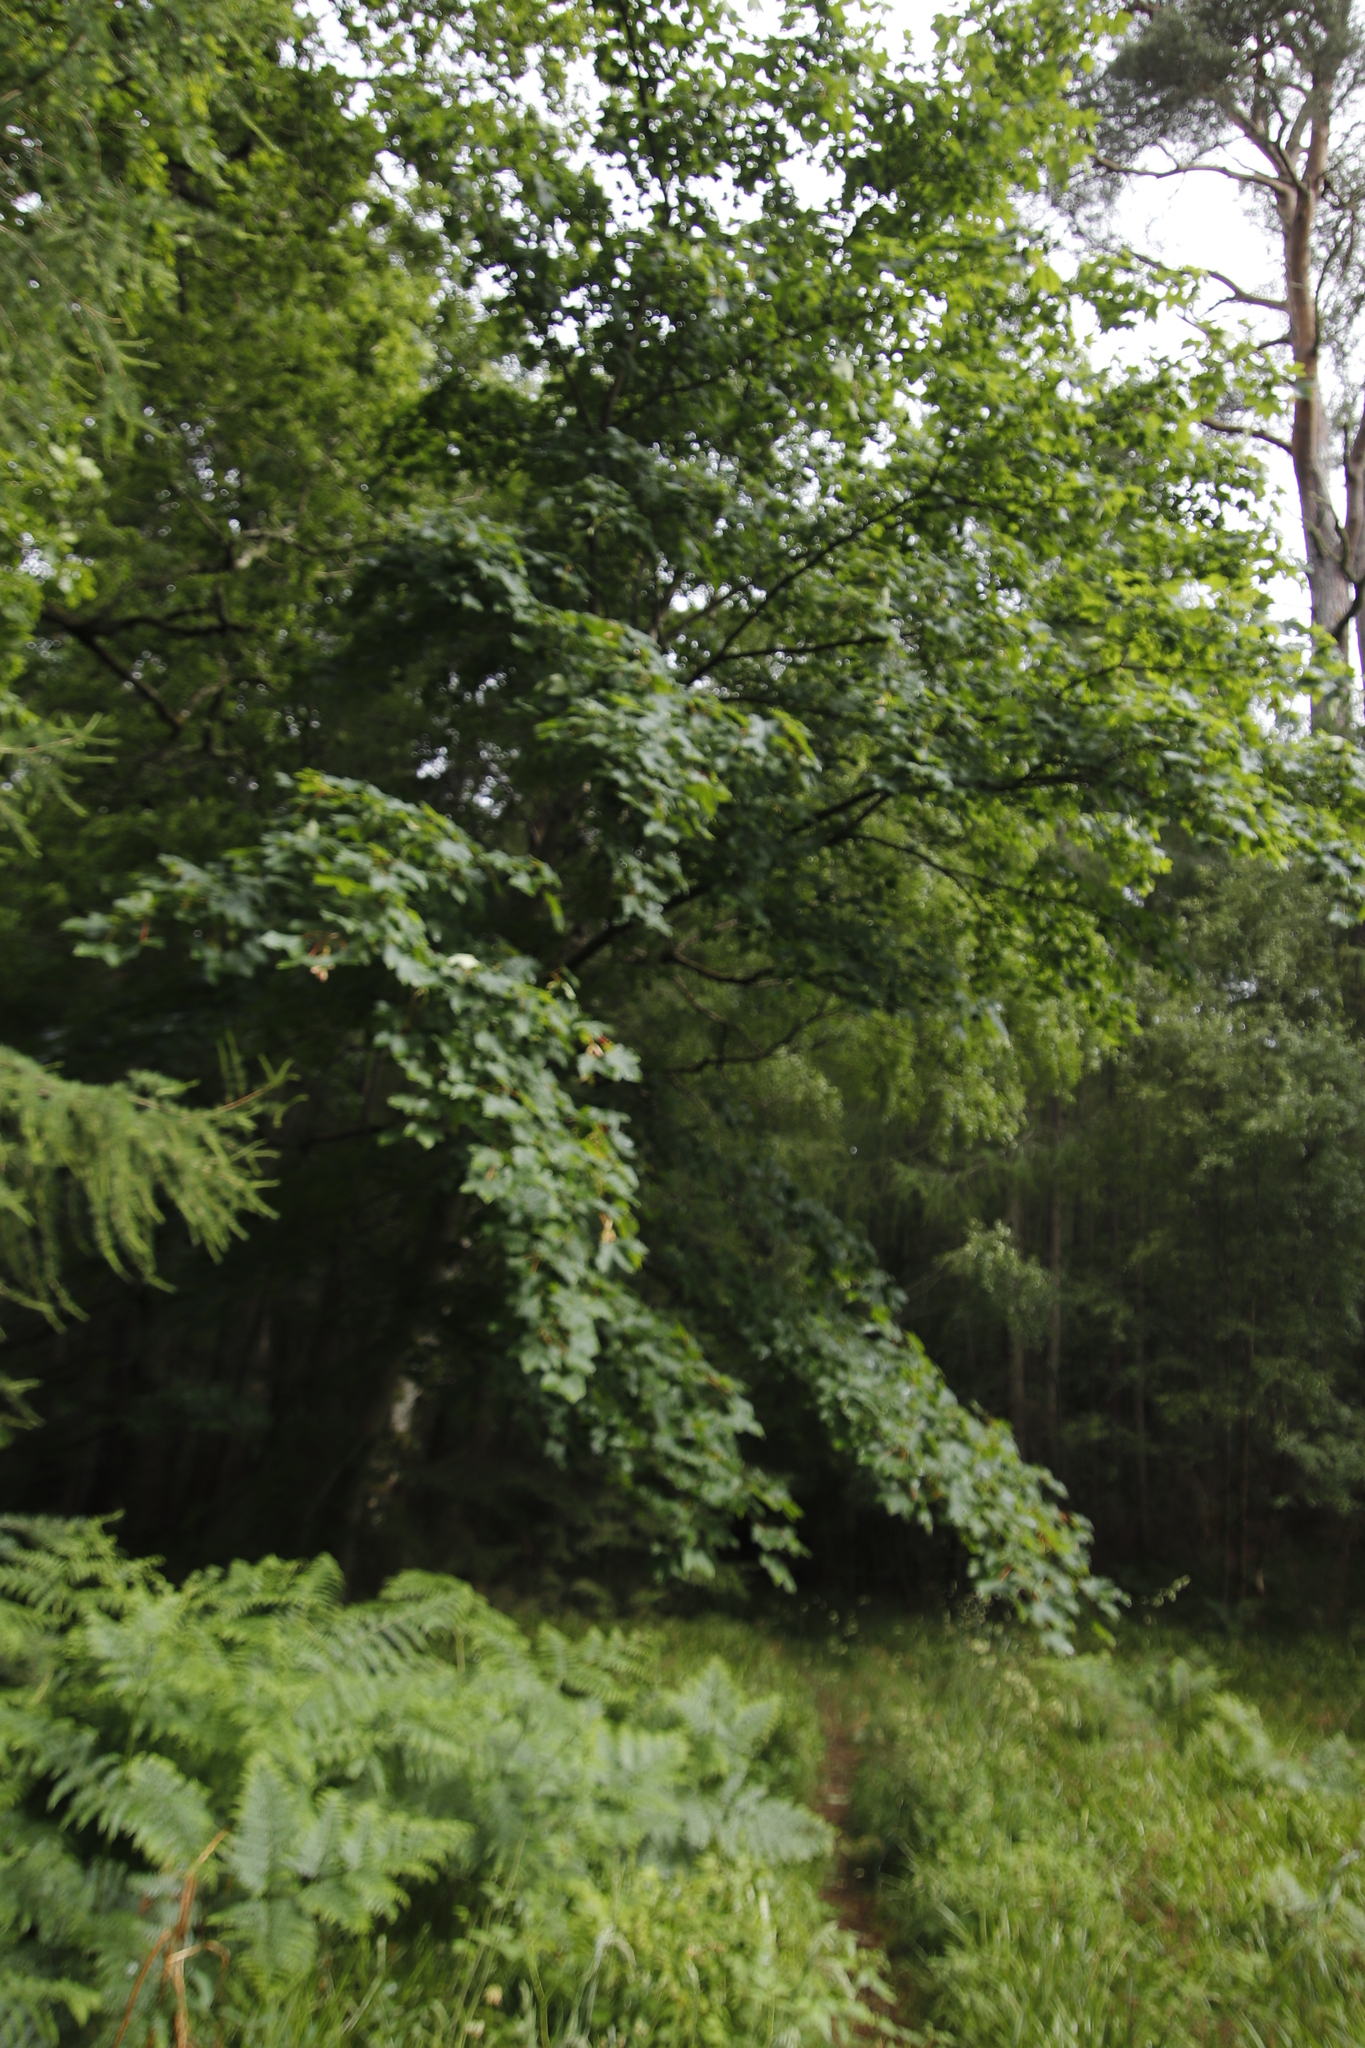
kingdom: Plantae
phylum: Tracheophyta
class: Magnoliopsida
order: Sapindales
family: Sapindaceae
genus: Acer
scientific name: Acer pseudoplatanus
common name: Sycamore
